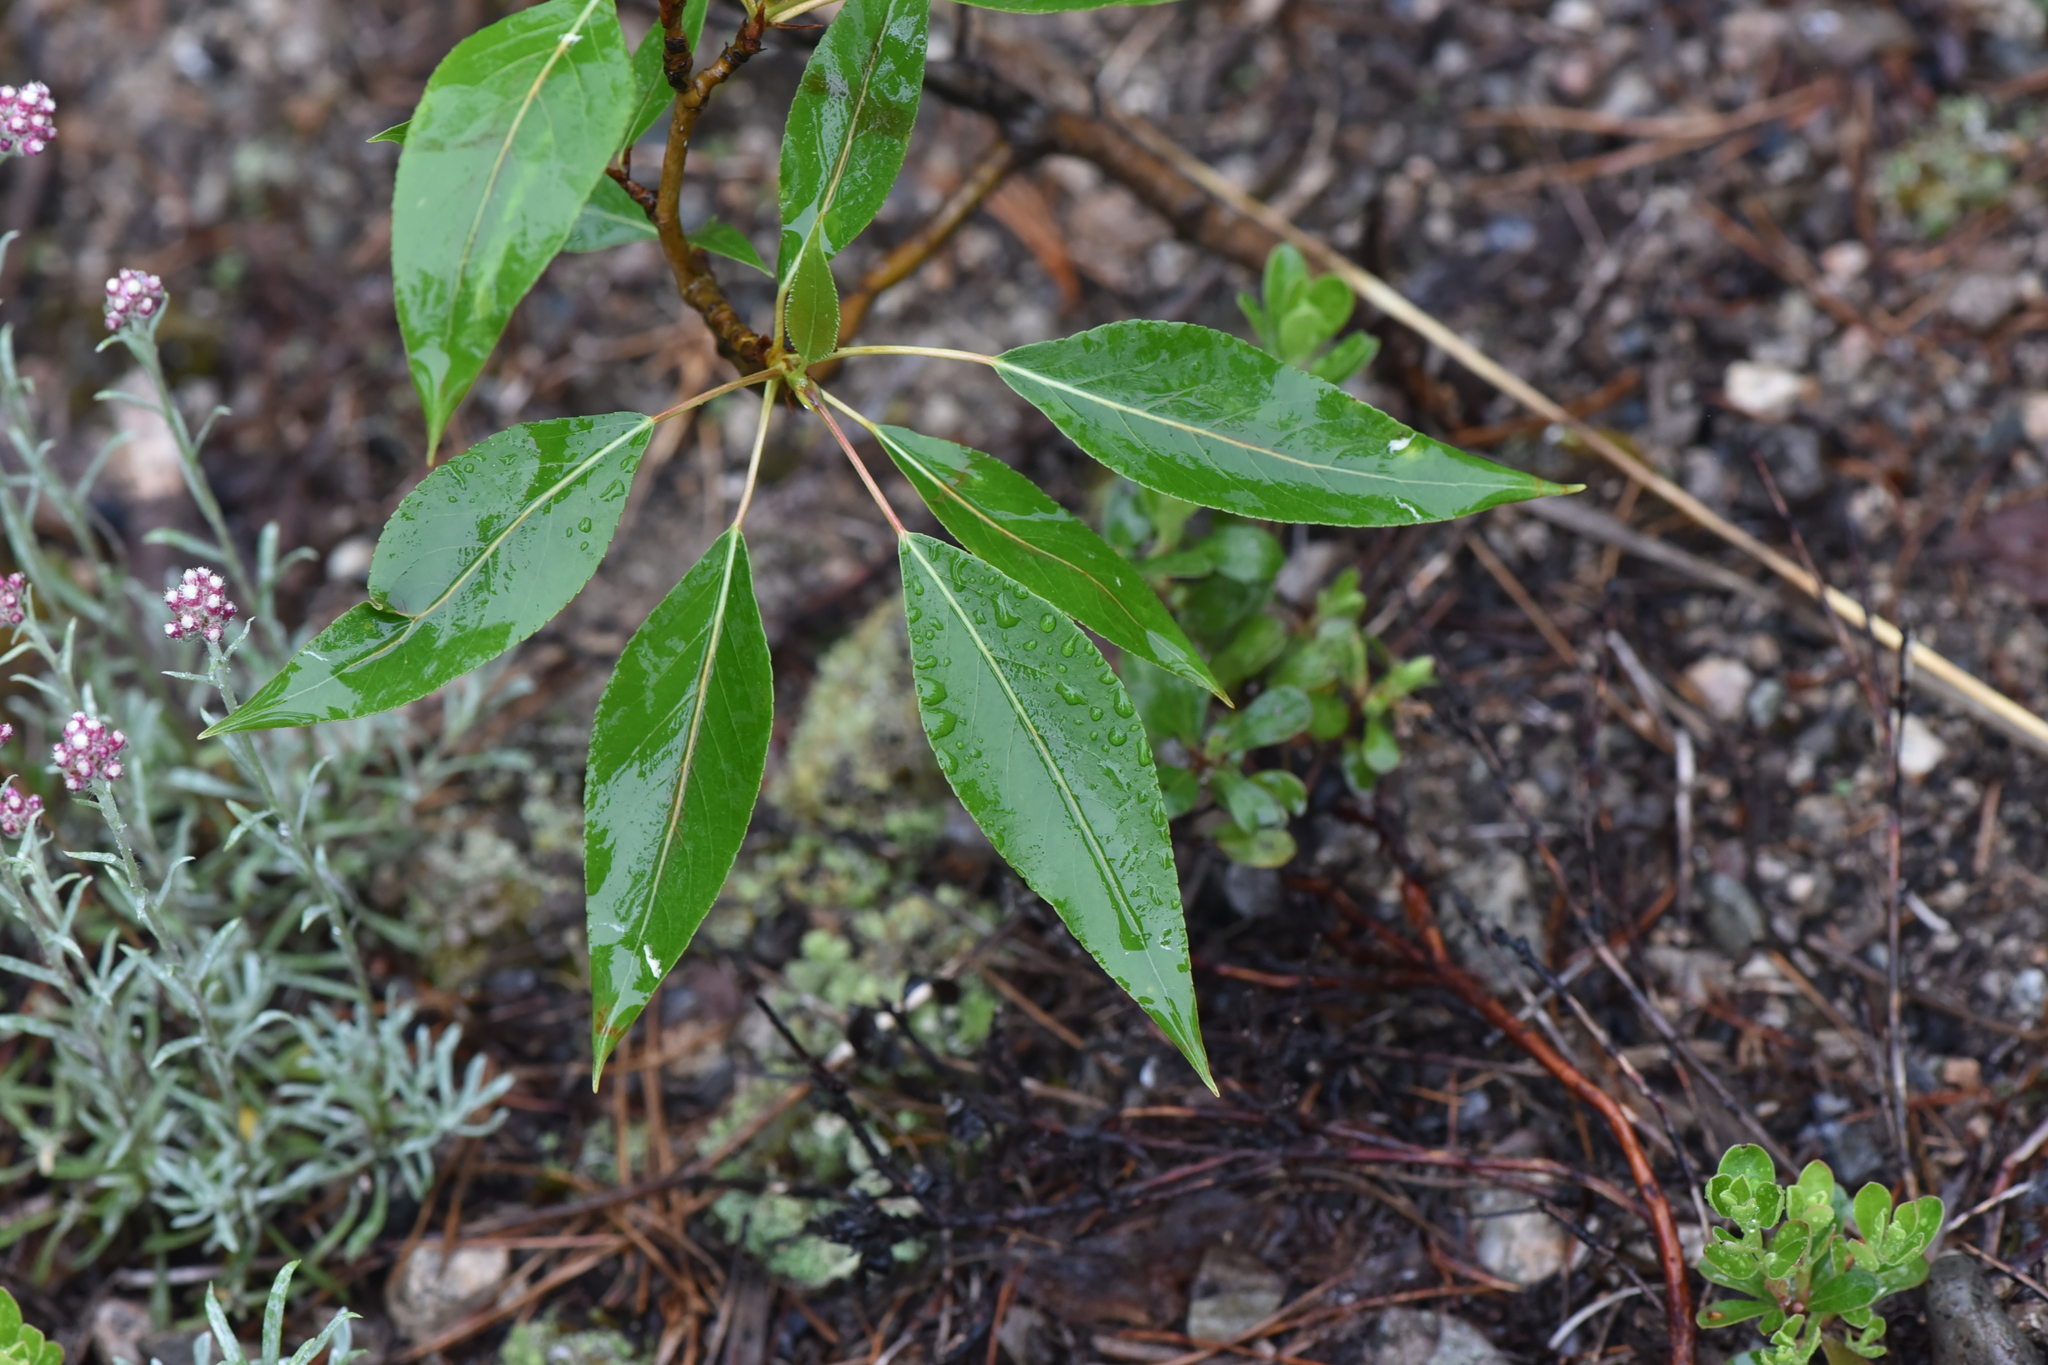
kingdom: Plantae
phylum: Tracheophyta
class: Magnoliopsida
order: Malpighiales
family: Salicaceae
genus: Populus
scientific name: Populus trichocarpa
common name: Black cottonwood
